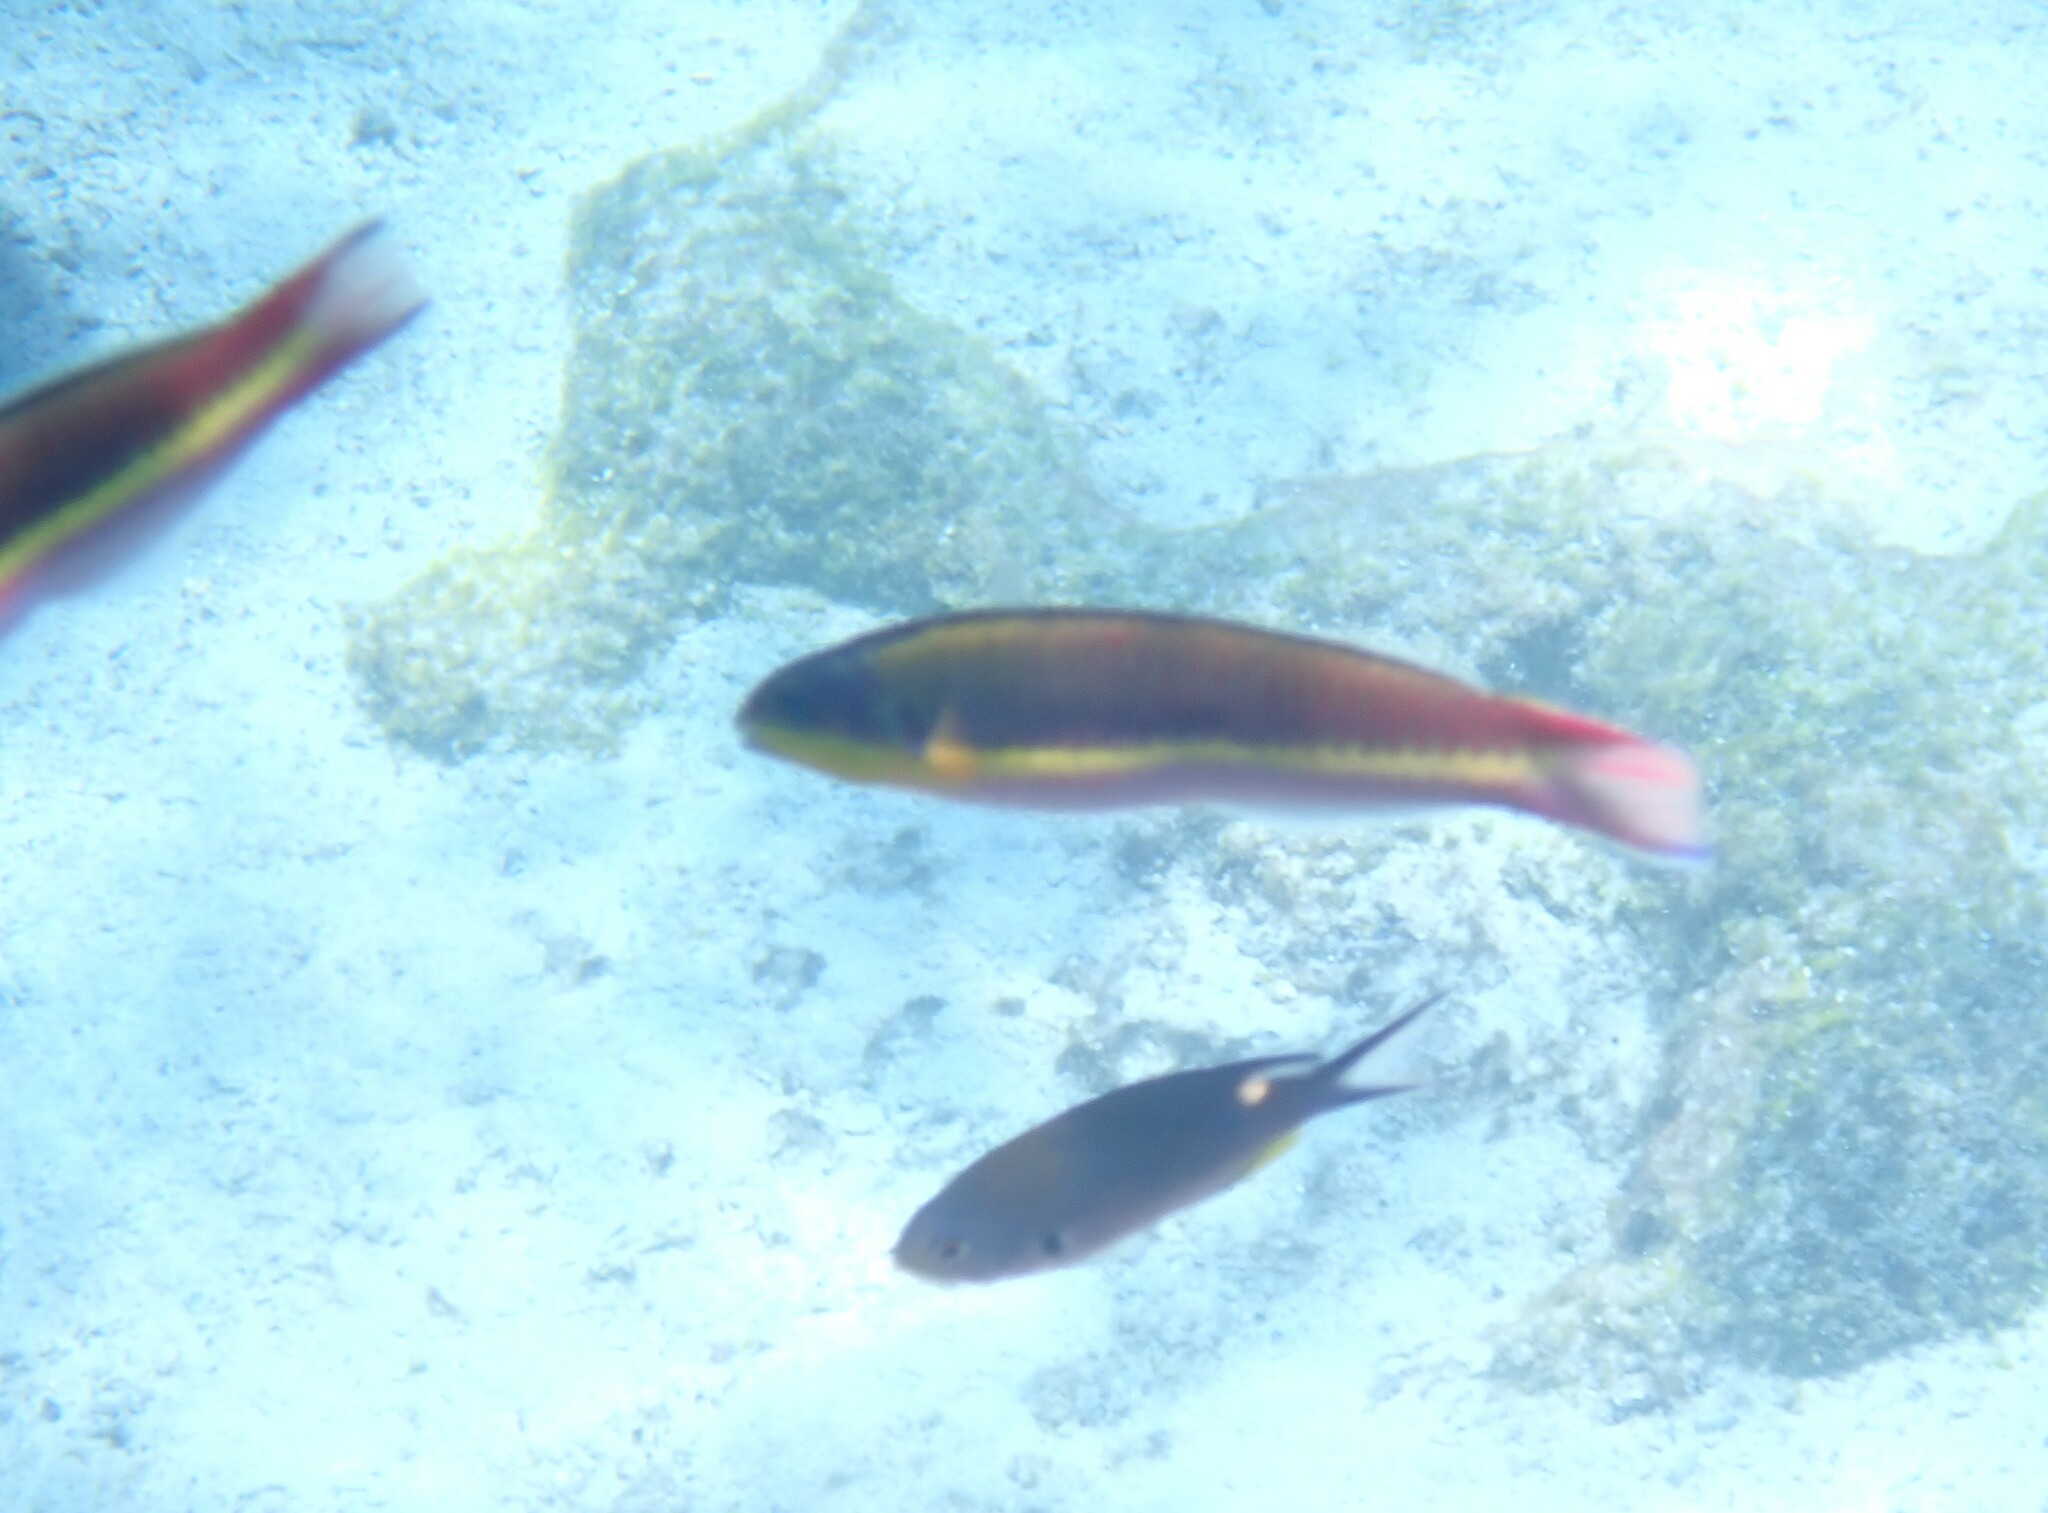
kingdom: Animalia
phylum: Chordata
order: Perciformes
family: Labridae
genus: Thalassoma
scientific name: Thalassoma lucasanum
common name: Cortez rainbow wrasse
